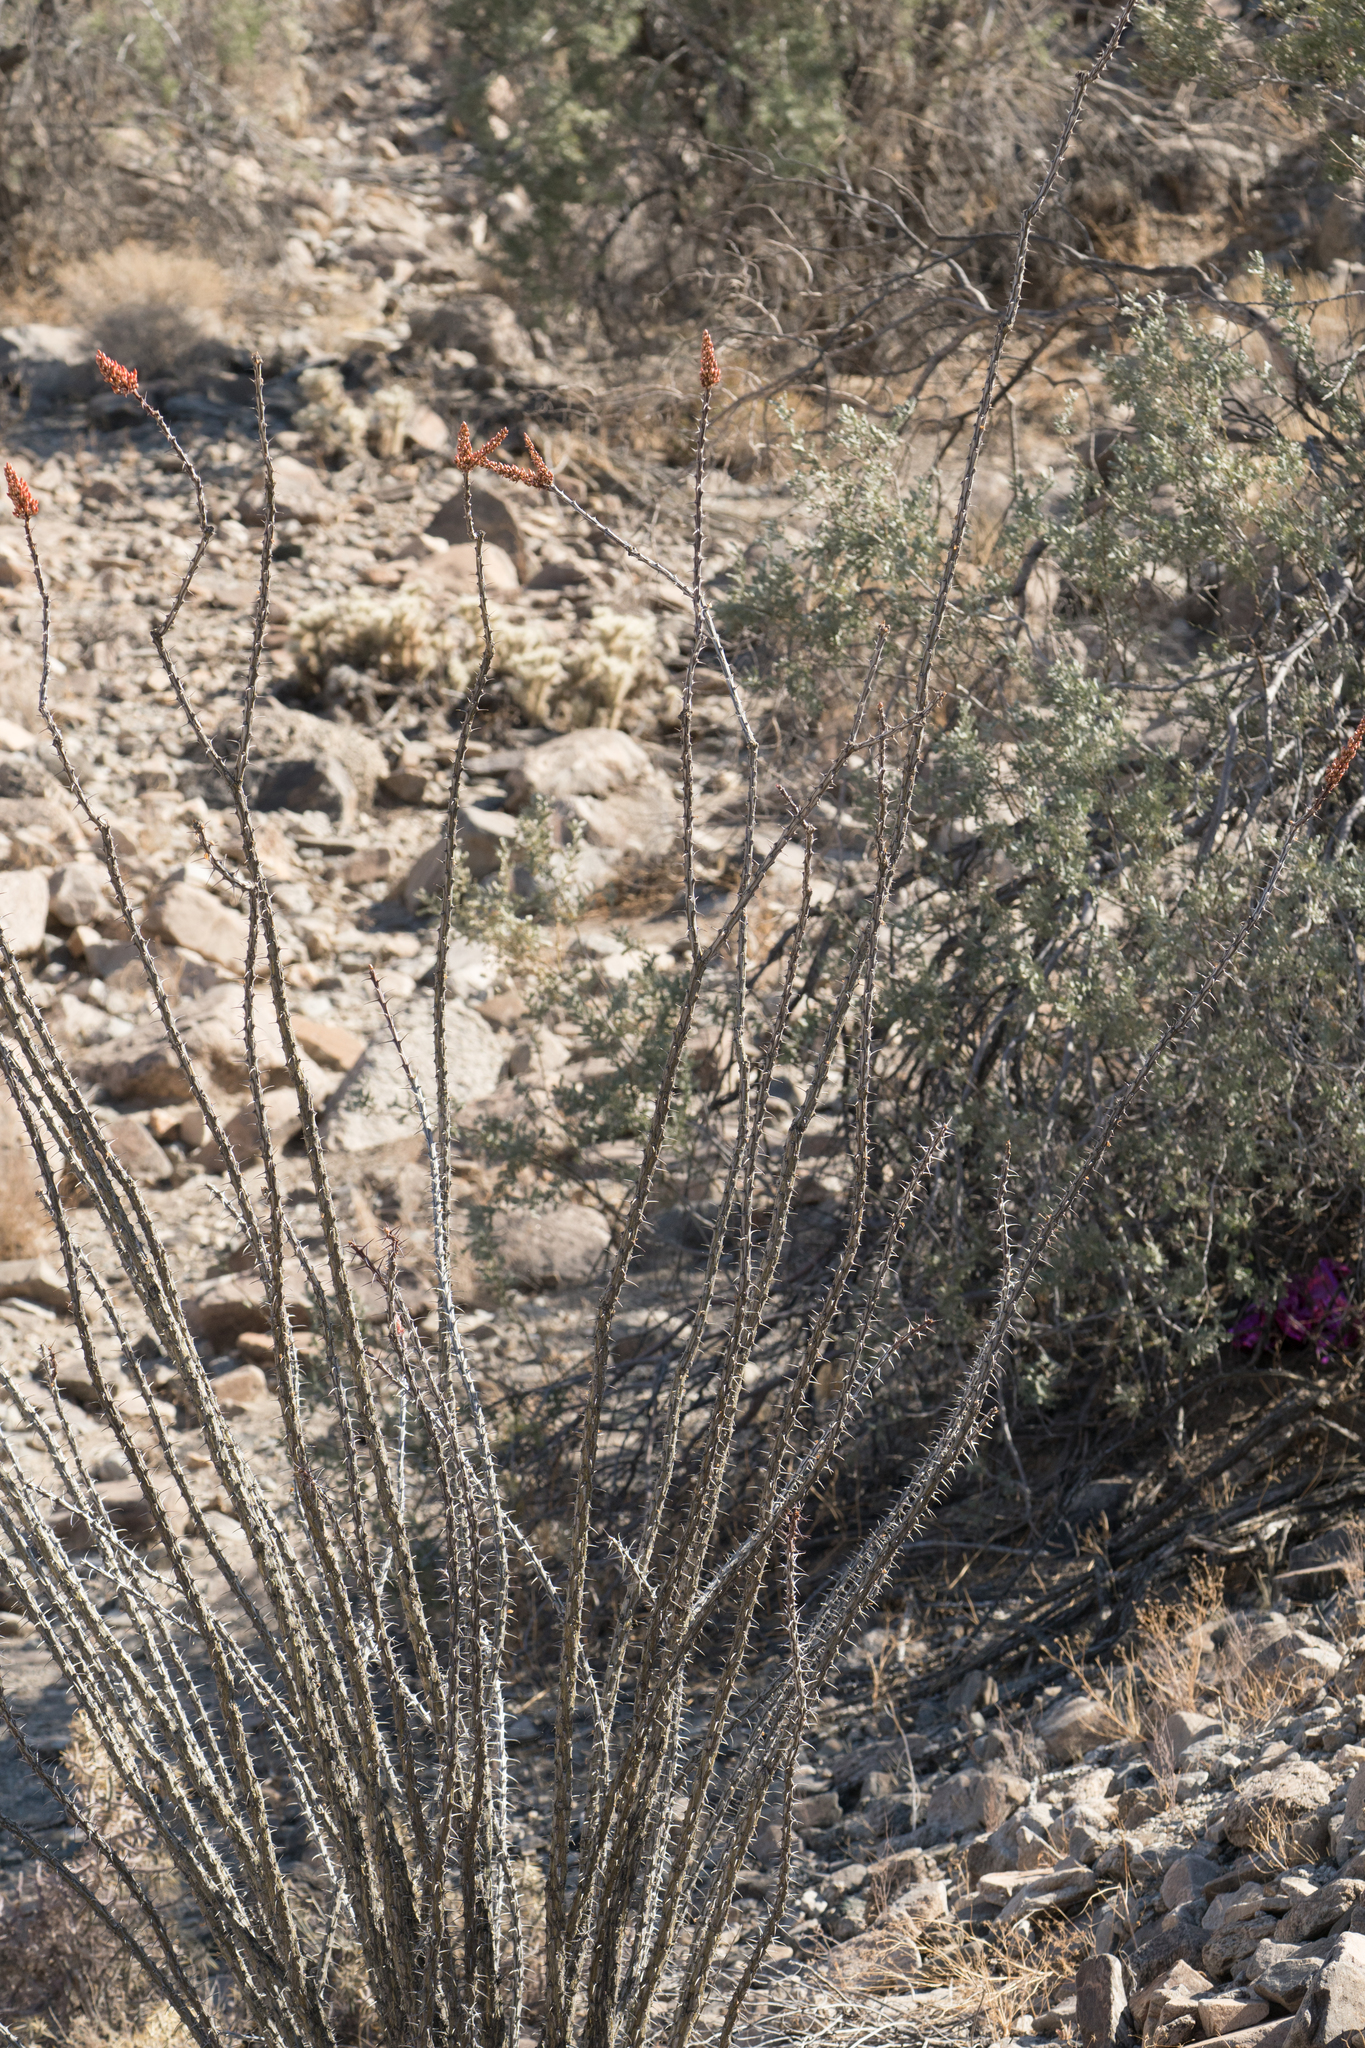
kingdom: Plantae
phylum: Tracheophyta
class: Magnoliopsida
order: Ericales
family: Fouquieriaceae
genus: Fouquieria
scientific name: Fouquieria splendens
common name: Vine-cactus
